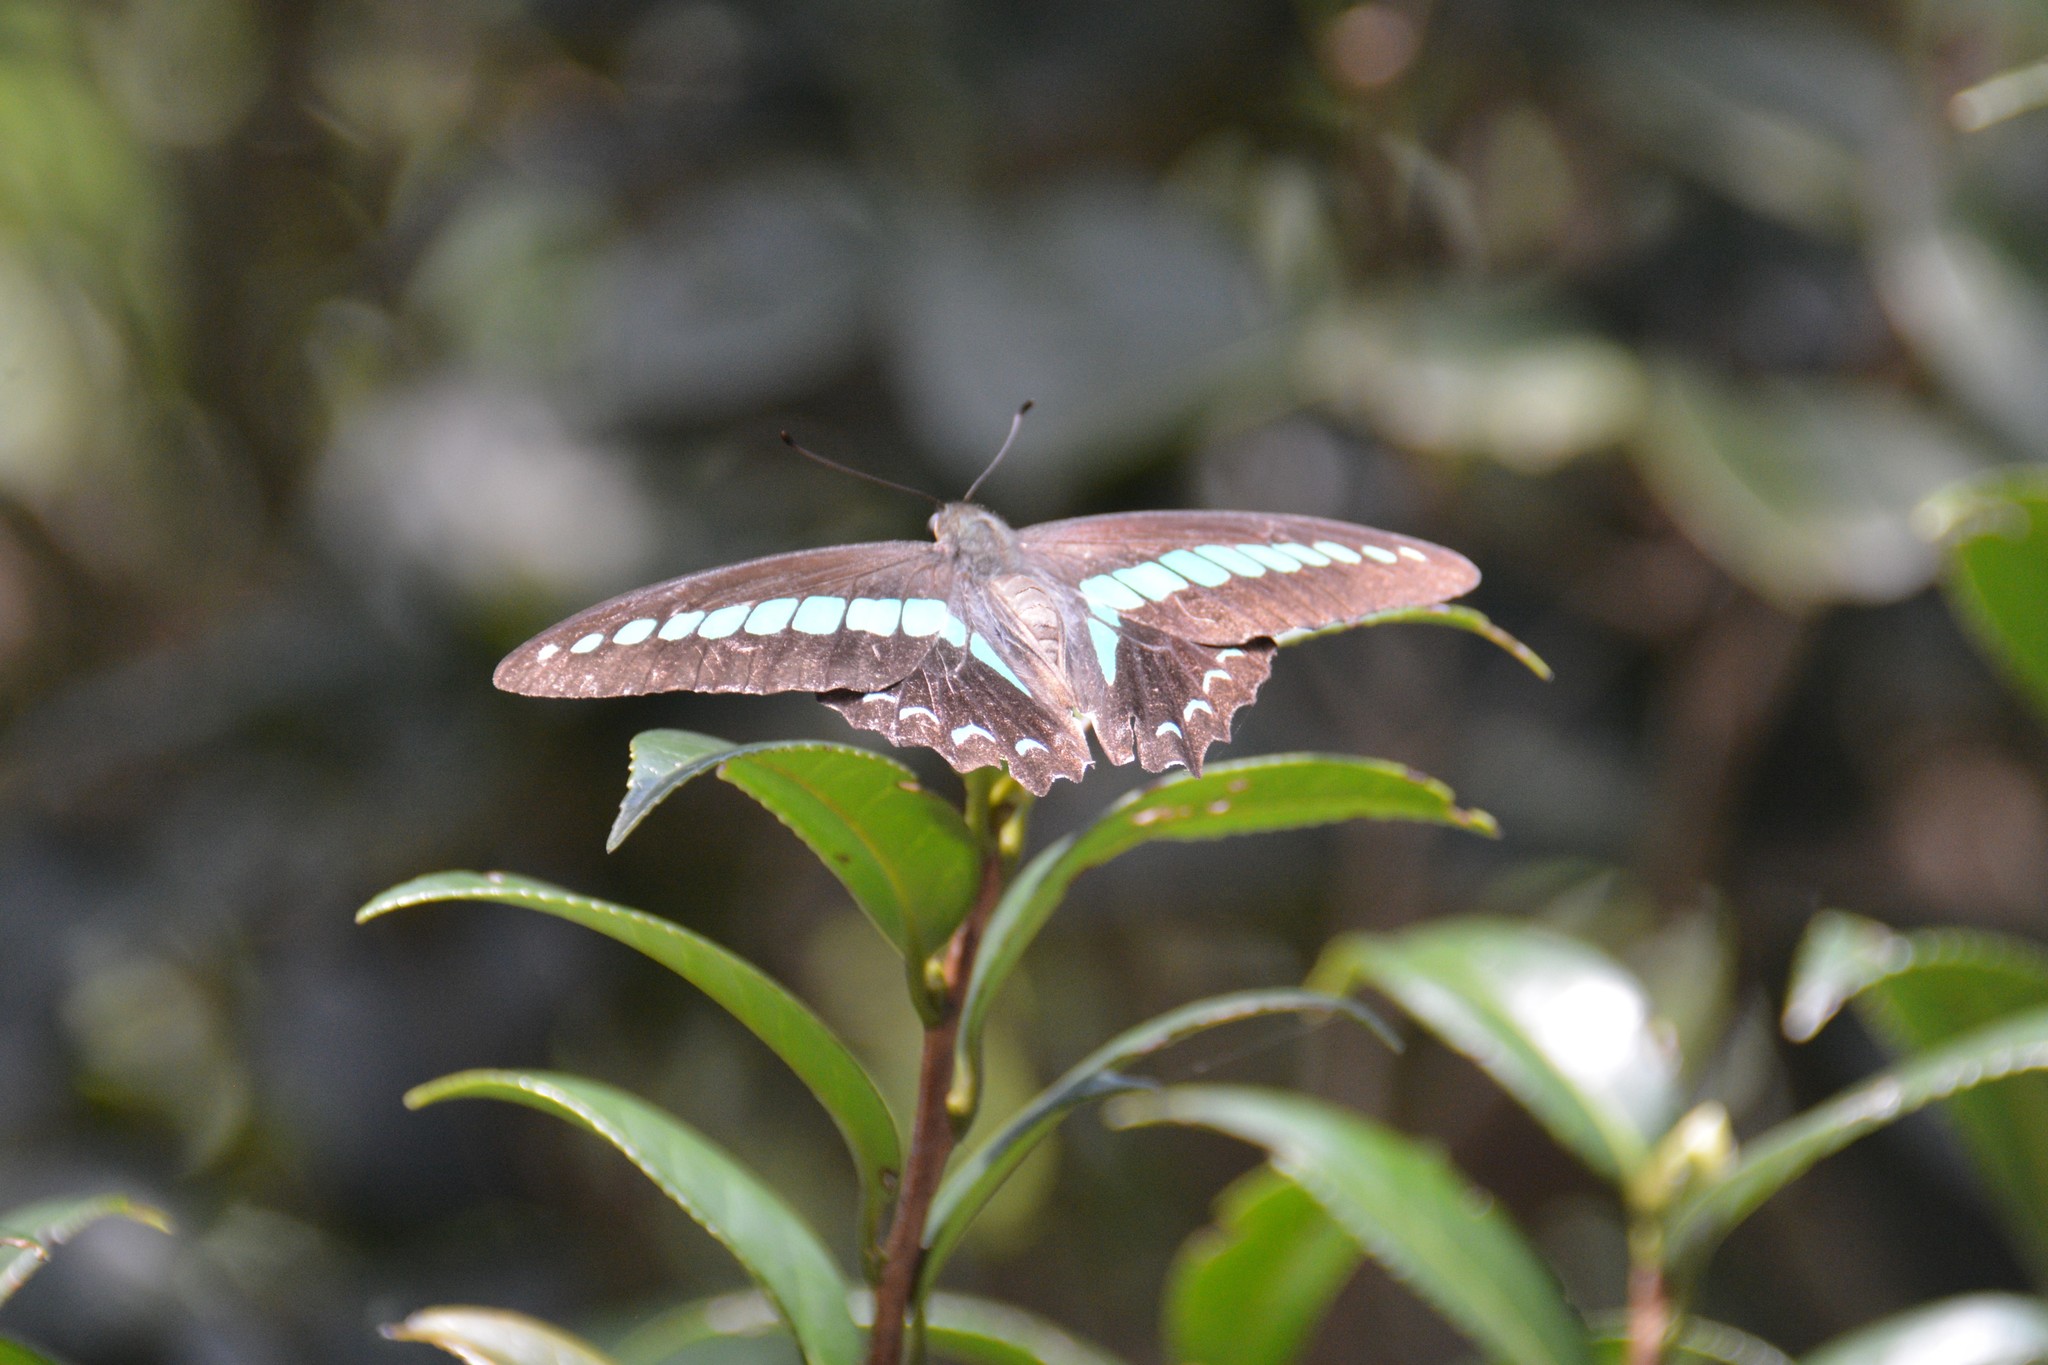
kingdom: Fungi
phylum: Ascomycota
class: Sordariomycetes
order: Microascales
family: Microascaceae
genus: Graphium
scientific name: Graphium sarpedon
